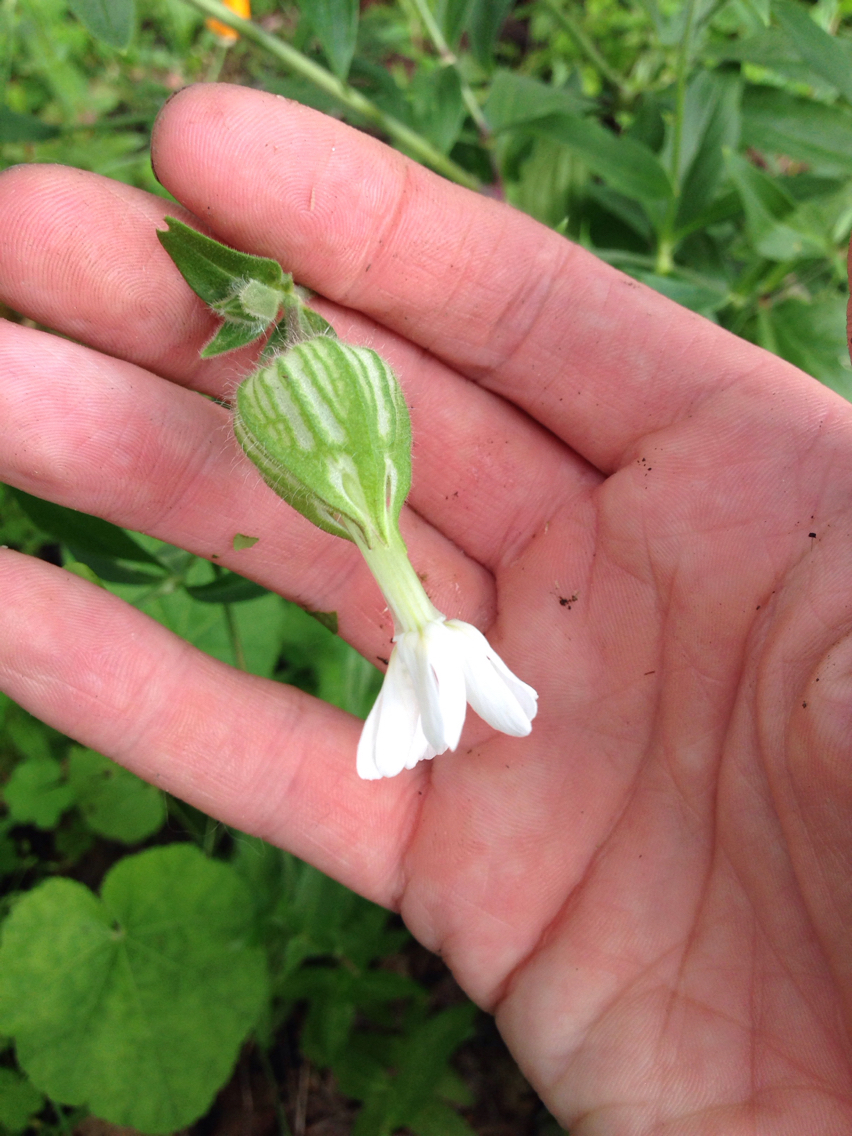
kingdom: Plantae
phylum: Tracheophyta
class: Magnoliopsida
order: Caryophyllales
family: Caryophyllaceae
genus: Silene
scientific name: Silene latifolia
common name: White campion
